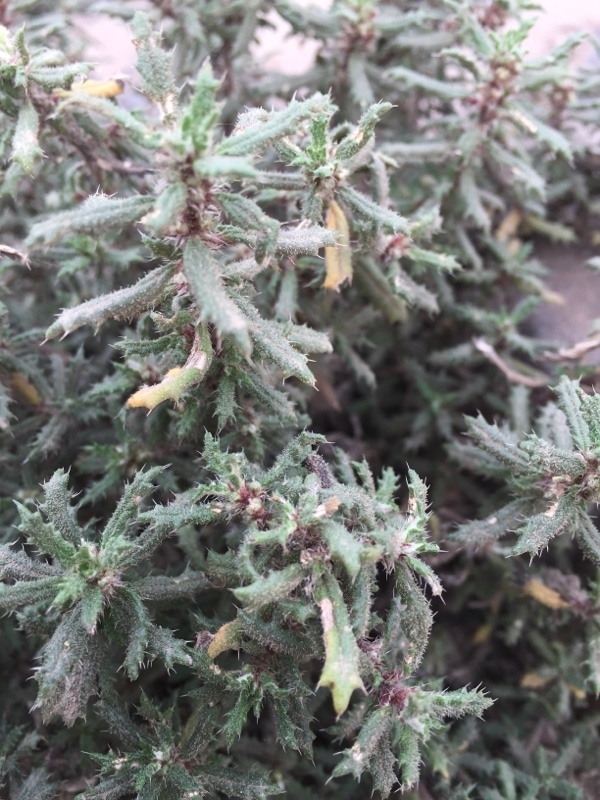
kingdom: Plantae
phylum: Tracheophyta
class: Magnoliopsida
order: Rosales
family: Urticaceae
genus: Forsskaolea
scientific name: Forsskaolea angustifolia
